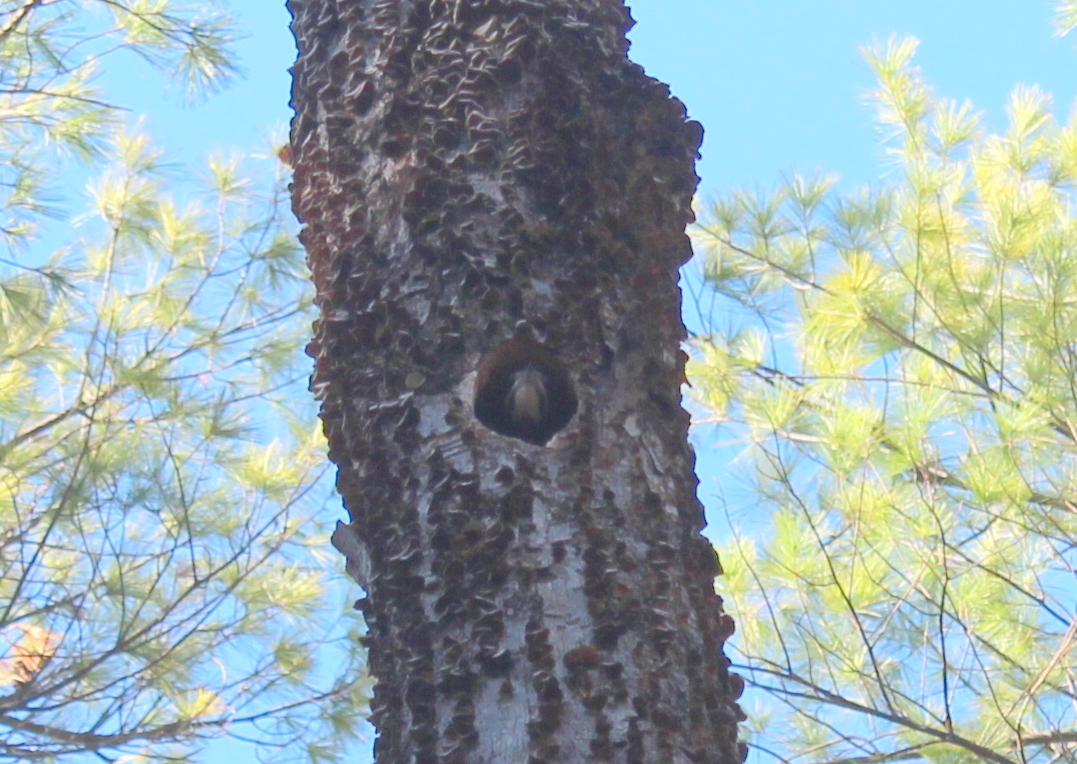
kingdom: Animalia
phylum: Chordata
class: Aves
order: Piciformes
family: Picidae
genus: Dryocopus
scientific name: Dryocopus pileatus
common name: Pileated woodpecker
